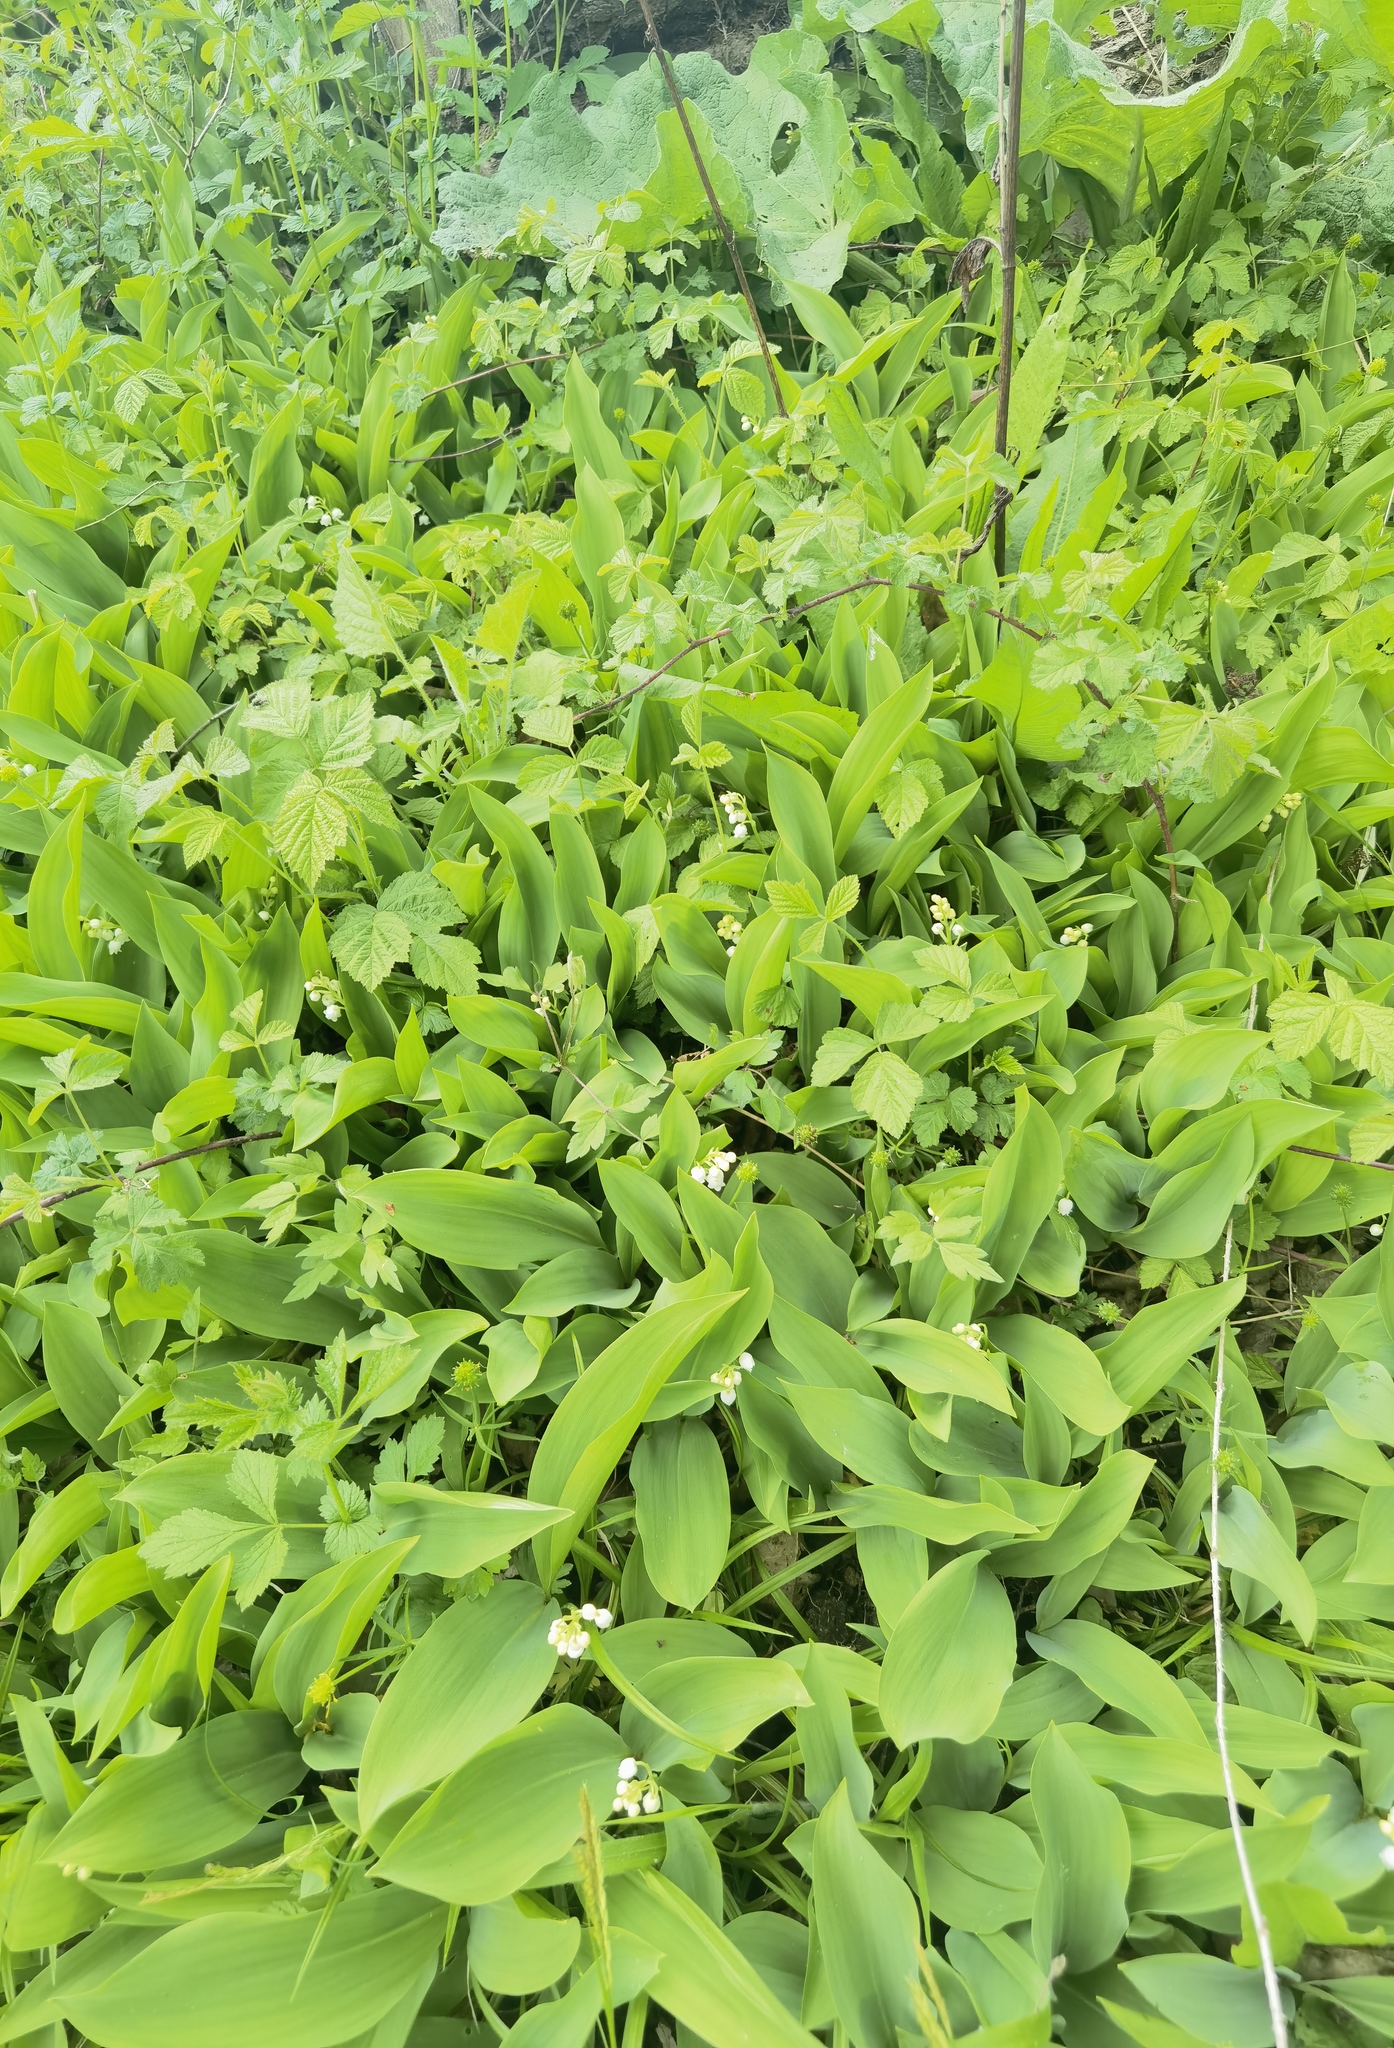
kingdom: Plantae
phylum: Tracheophyta
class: Liliopsida
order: Asparagales
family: Asparagaceae
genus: Convallaria
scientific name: Convallaria majalis
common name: Lily-of-the-valley
